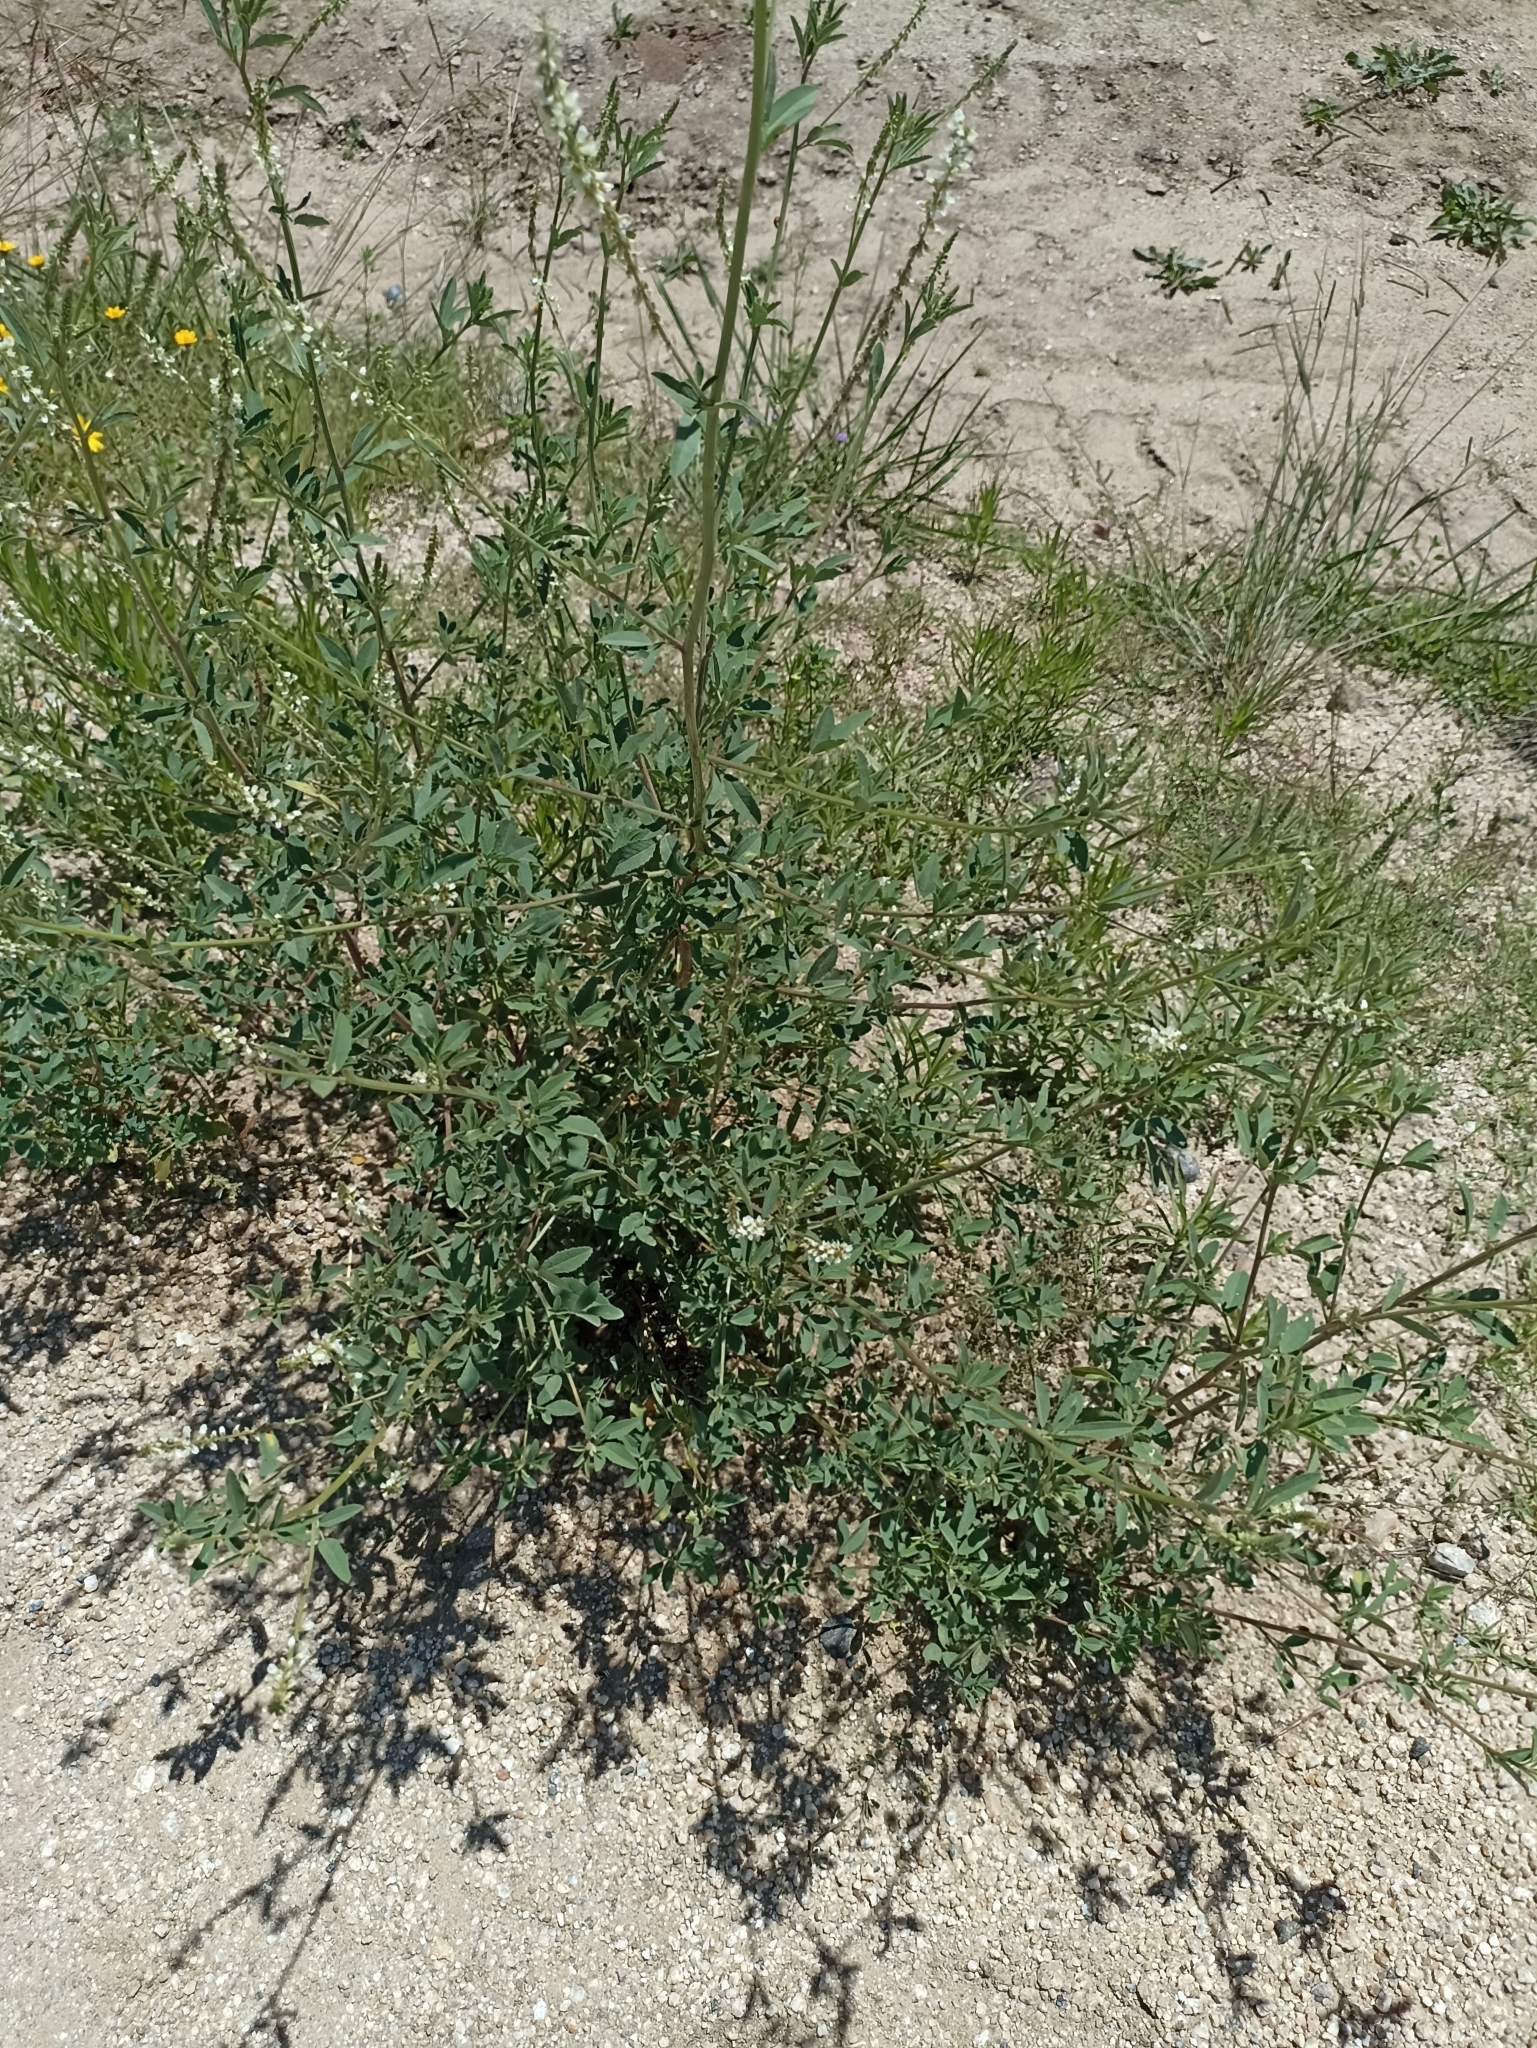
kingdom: Plantae
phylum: Tracheophyta
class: Magnoliopsida
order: Fabales
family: Fabaceae
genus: Melilotus
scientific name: Melilotus albus
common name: White melilot
